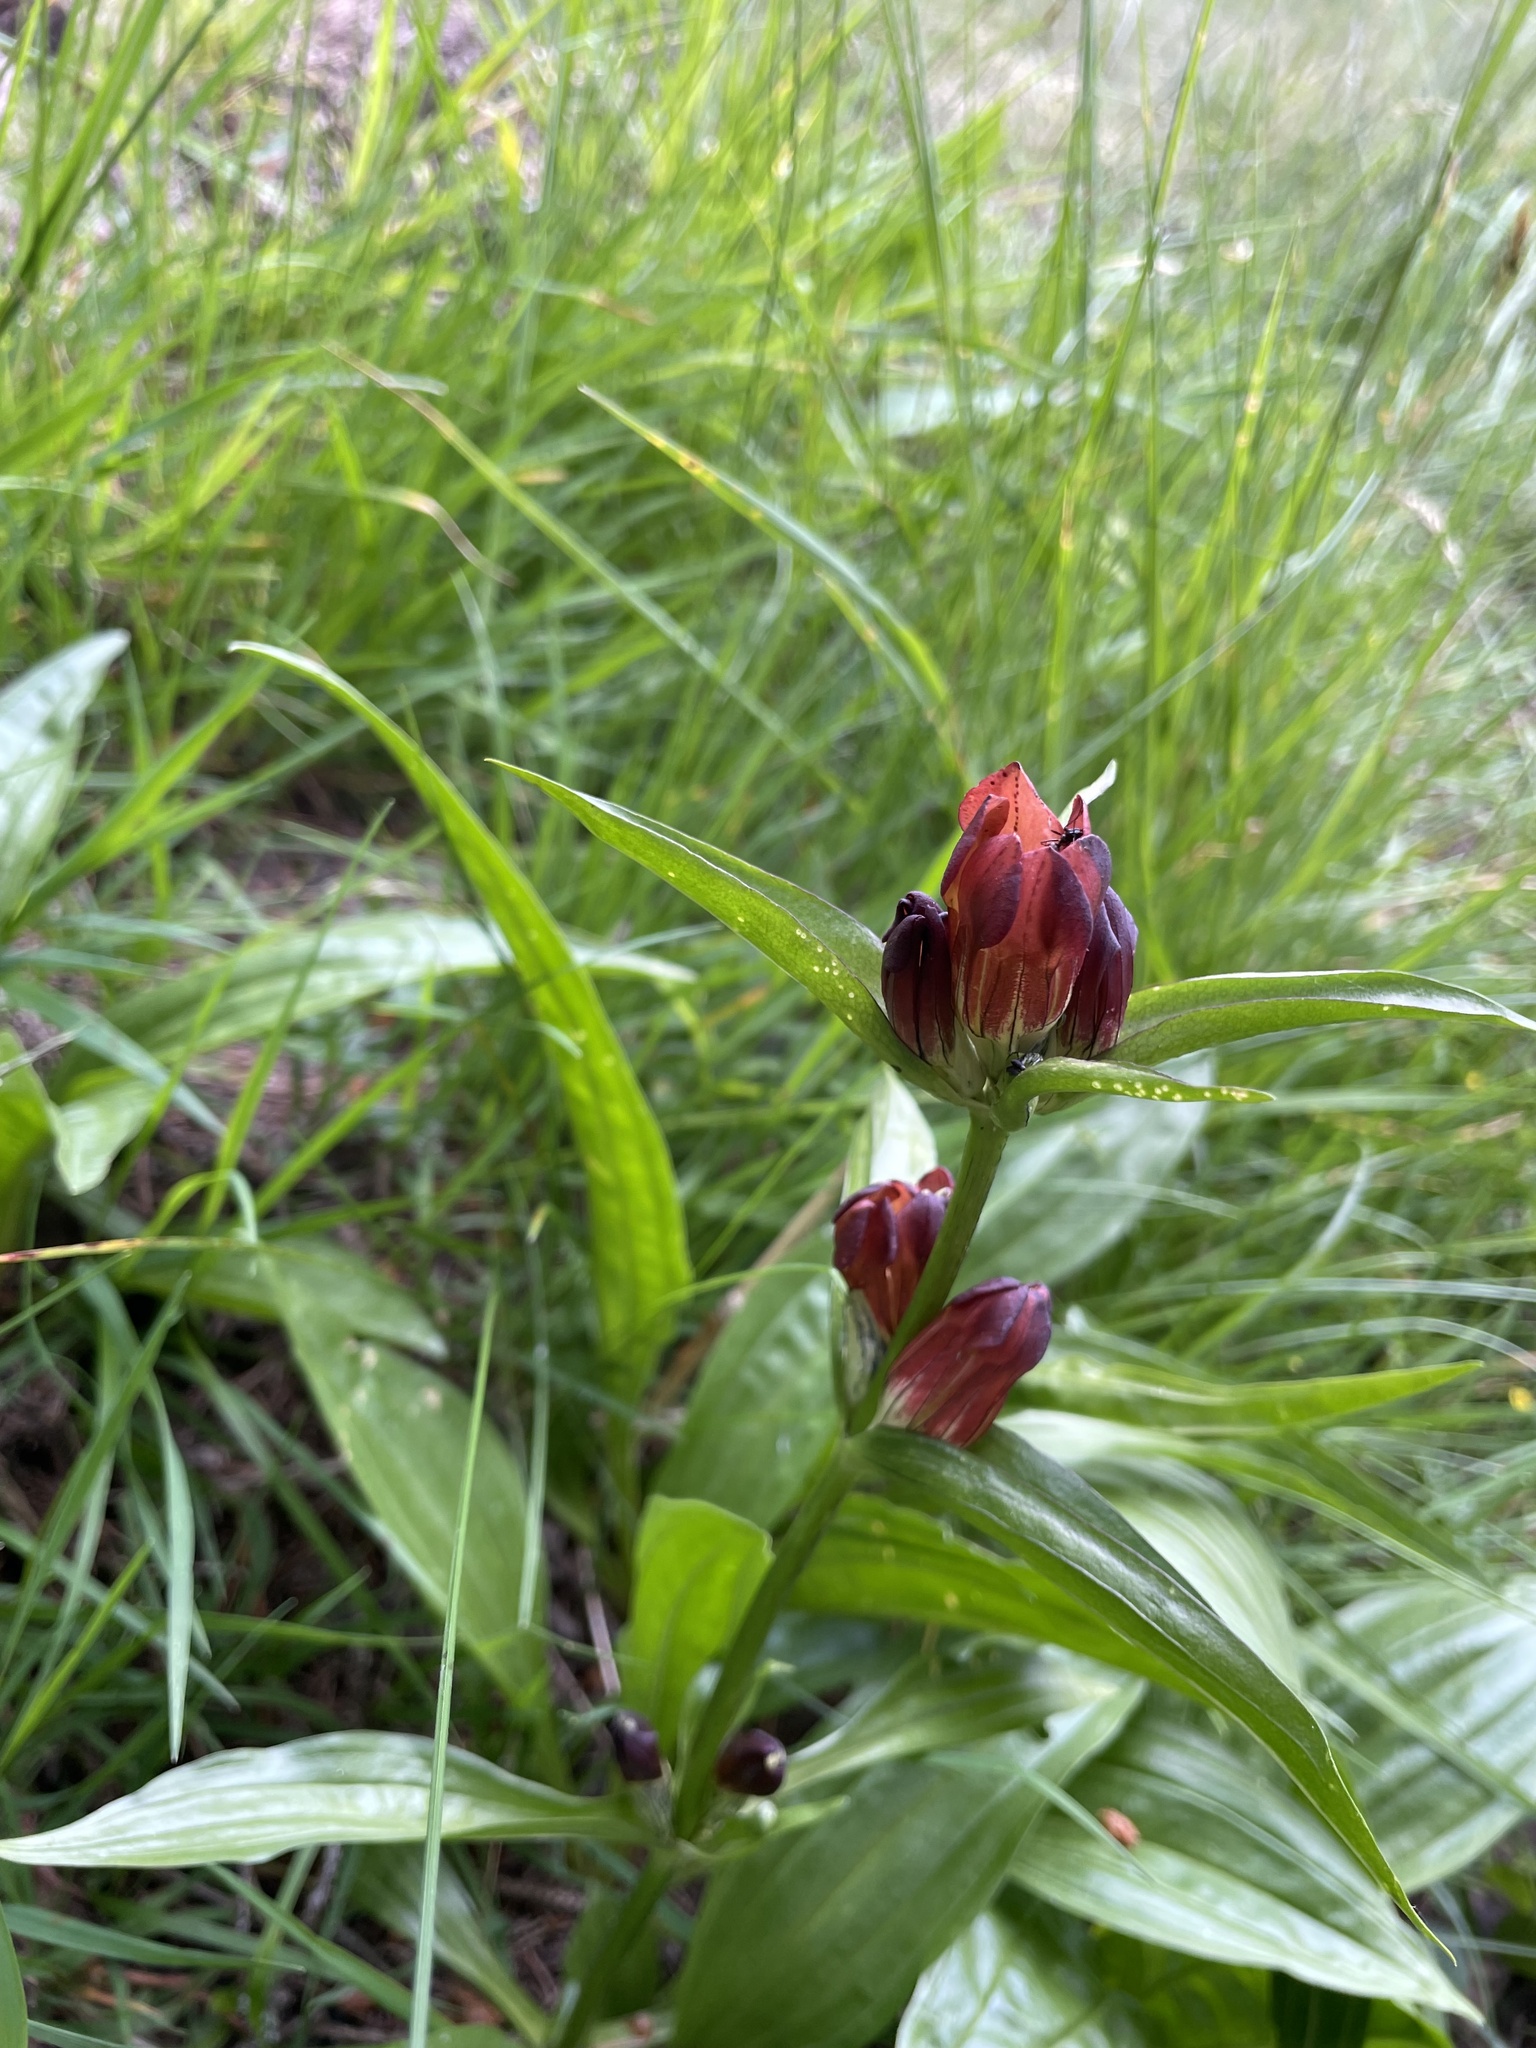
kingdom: Plantae
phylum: Tracheophyta
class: Magnoliopsida
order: Gentianales
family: Gentianaceae
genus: Gentiana
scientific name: Gentiana purpurea
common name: Purple gentian
